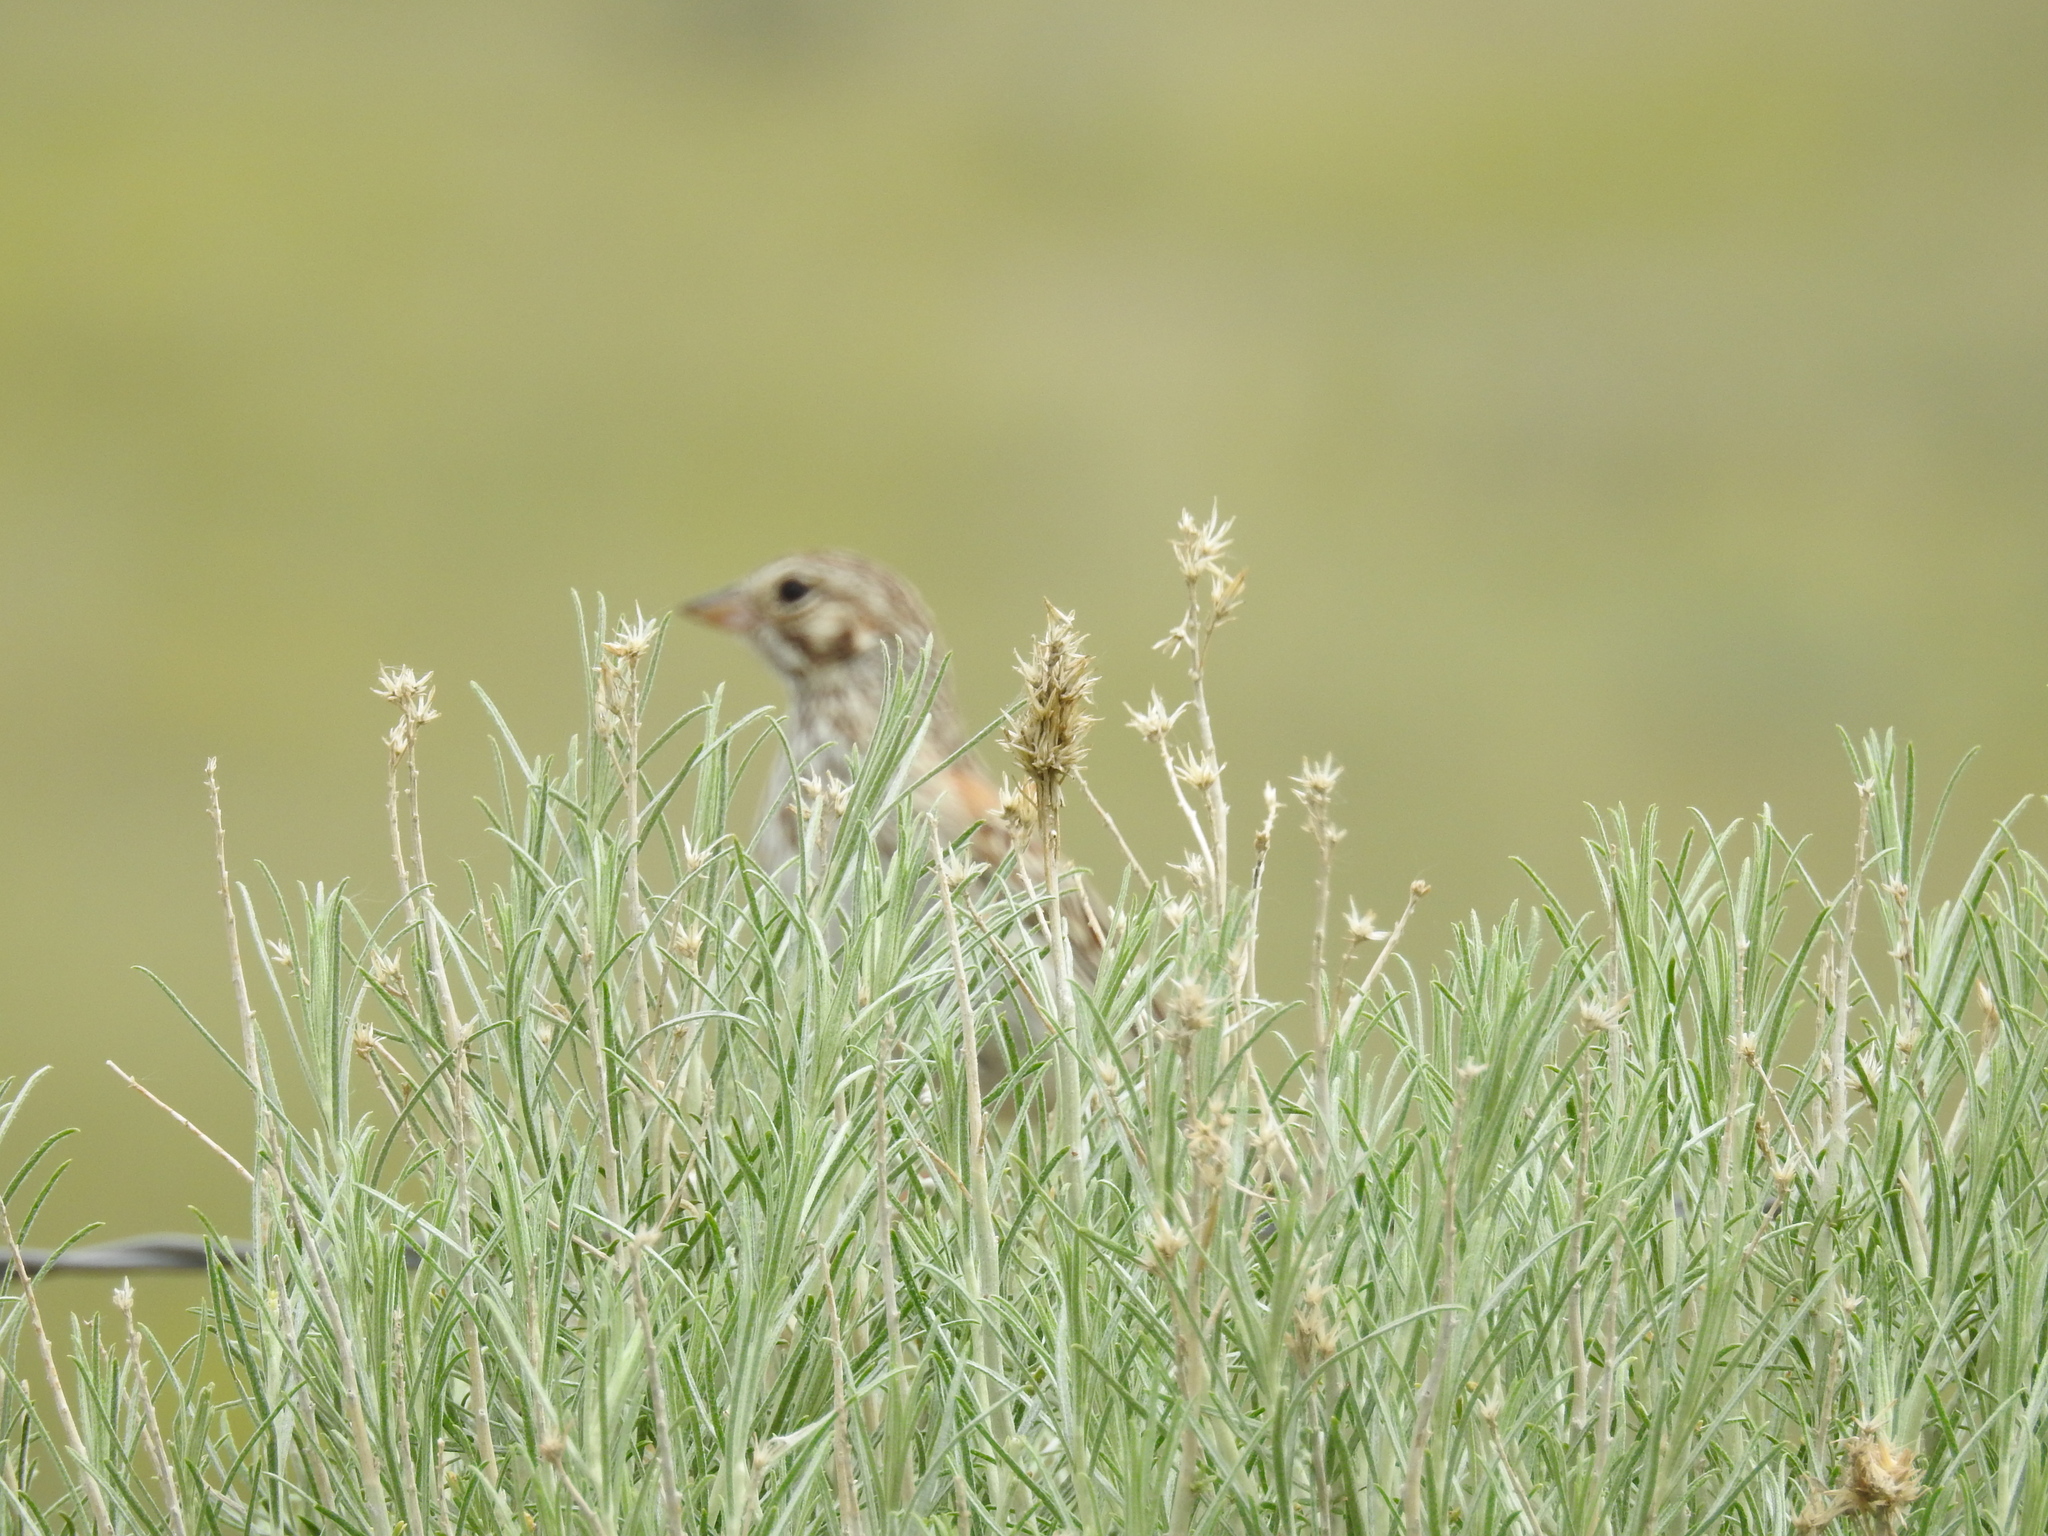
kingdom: Animalia
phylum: Chordata
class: Aves
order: Passeriformes
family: Passerellidae
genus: Pooecetes
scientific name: Pooecetes gramineus
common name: Vesper sparrow
